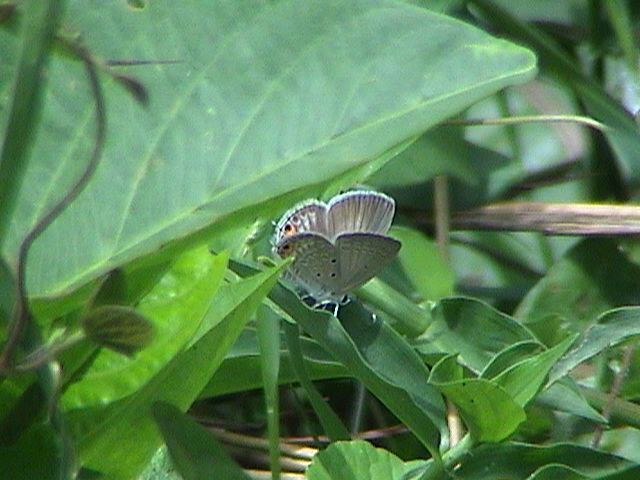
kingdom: Animalia
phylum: Arthropoda
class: Insecta
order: Lepidoptera
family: Lycaenidae
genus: Euchrysops
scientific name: Euchrysops cnejus
